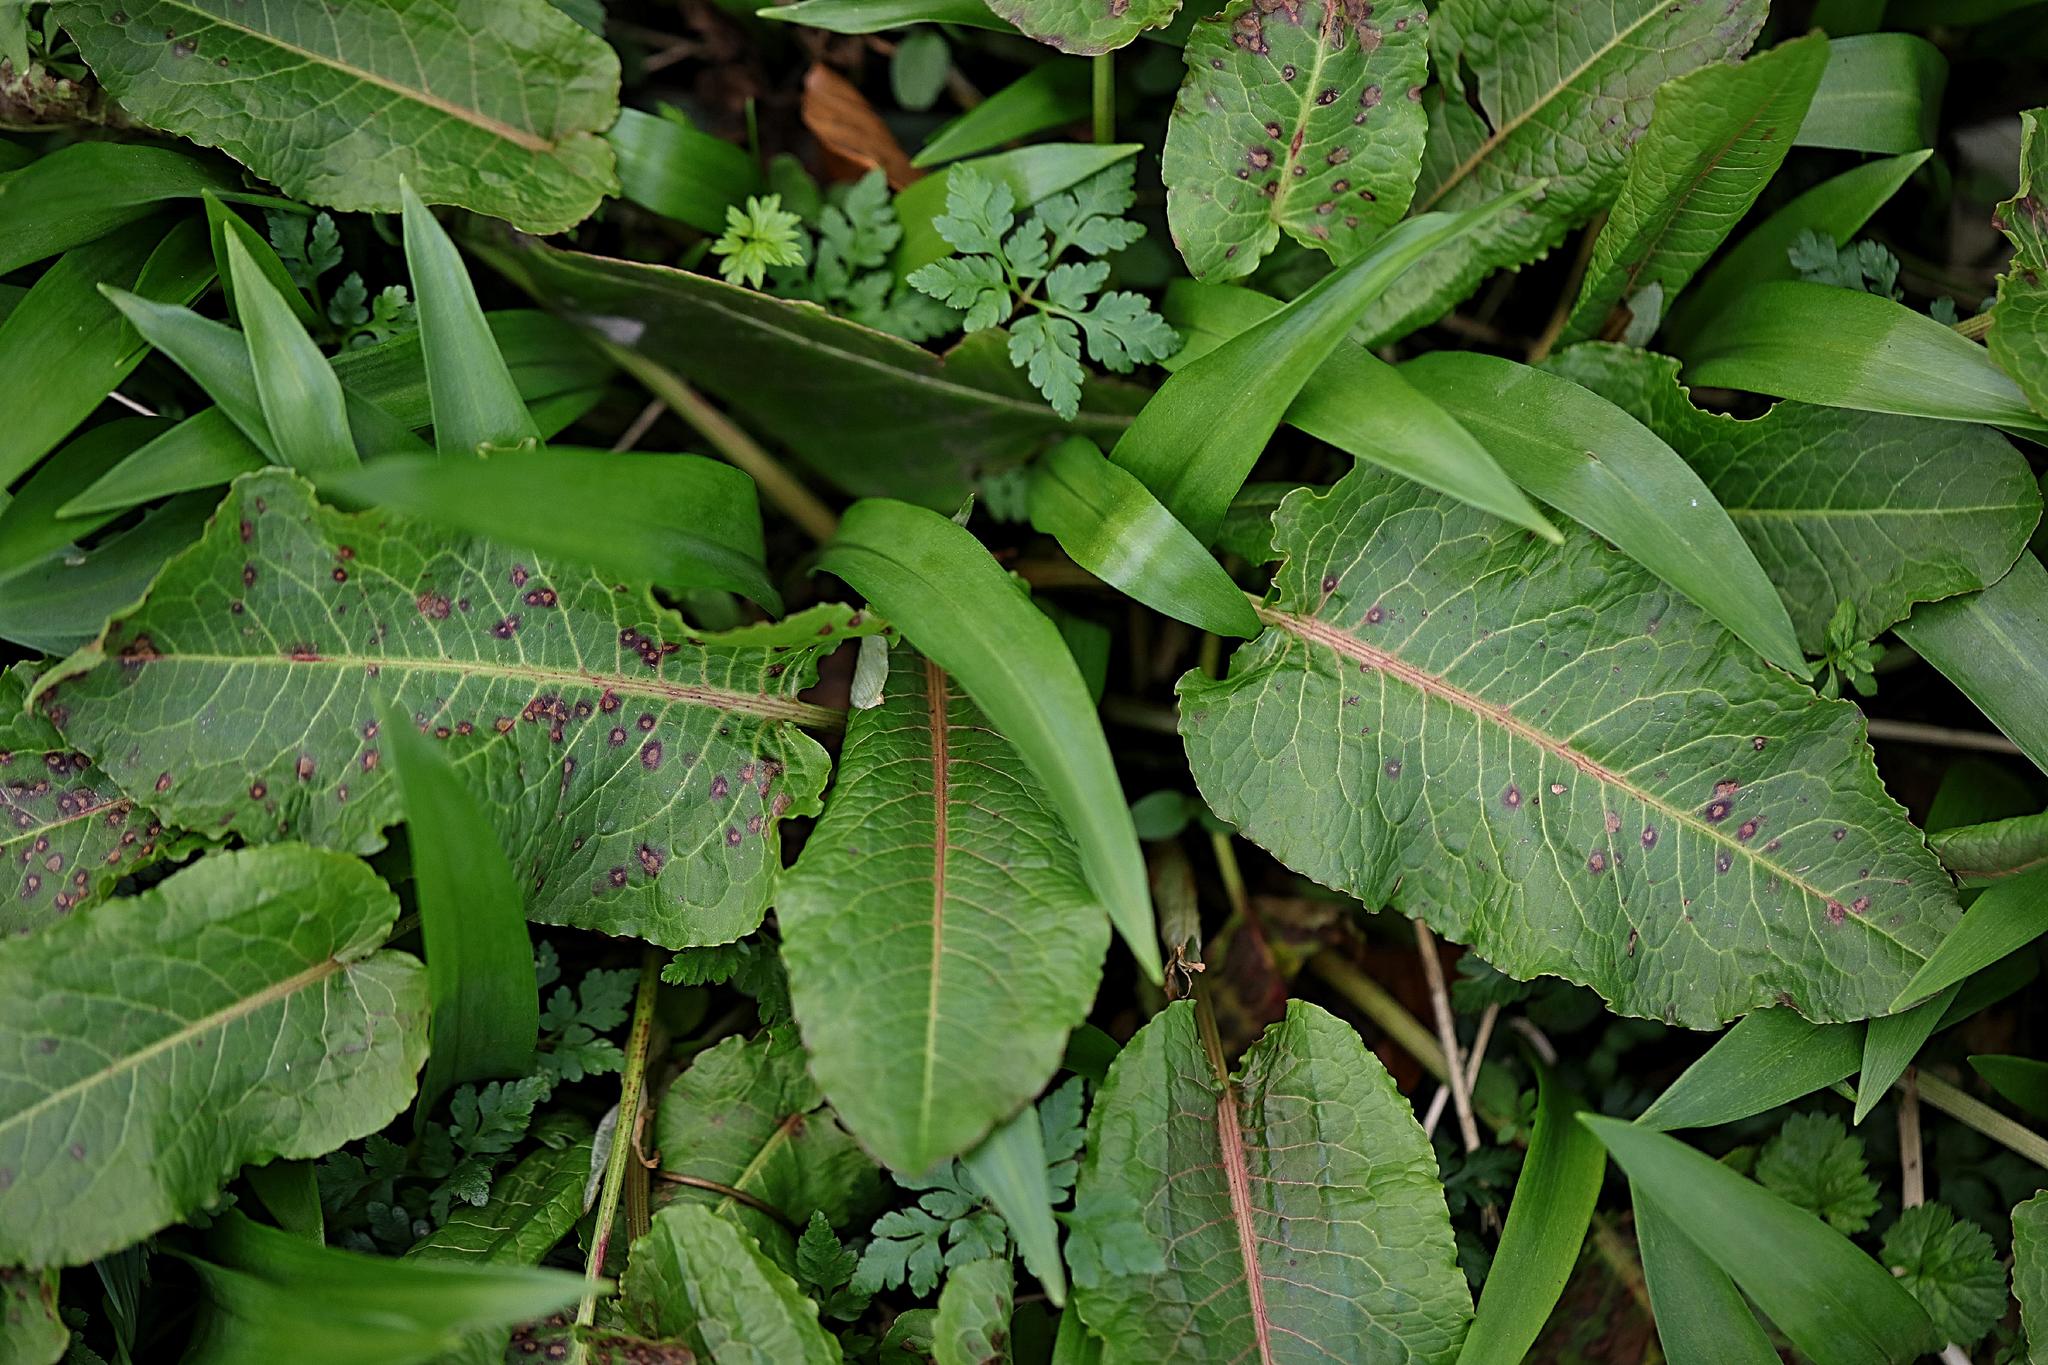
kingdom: Plantae
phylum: Tracheophyta
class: Magnoliopsida
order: Caryophyllales
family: Polygonaceae
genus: Rumex
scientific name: Rumex obtusifolius
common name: Bitter dock
